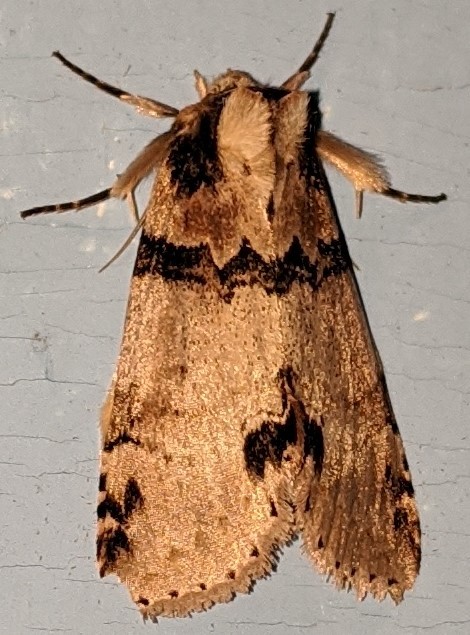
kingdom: Animalia
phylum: Arthropoda
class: Insecta
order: Lepidoptera
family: Drepanidae
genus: Pseudothyatira
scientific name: Pseudothyatira cymatophoroides
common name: Tufted thyatirid moth
